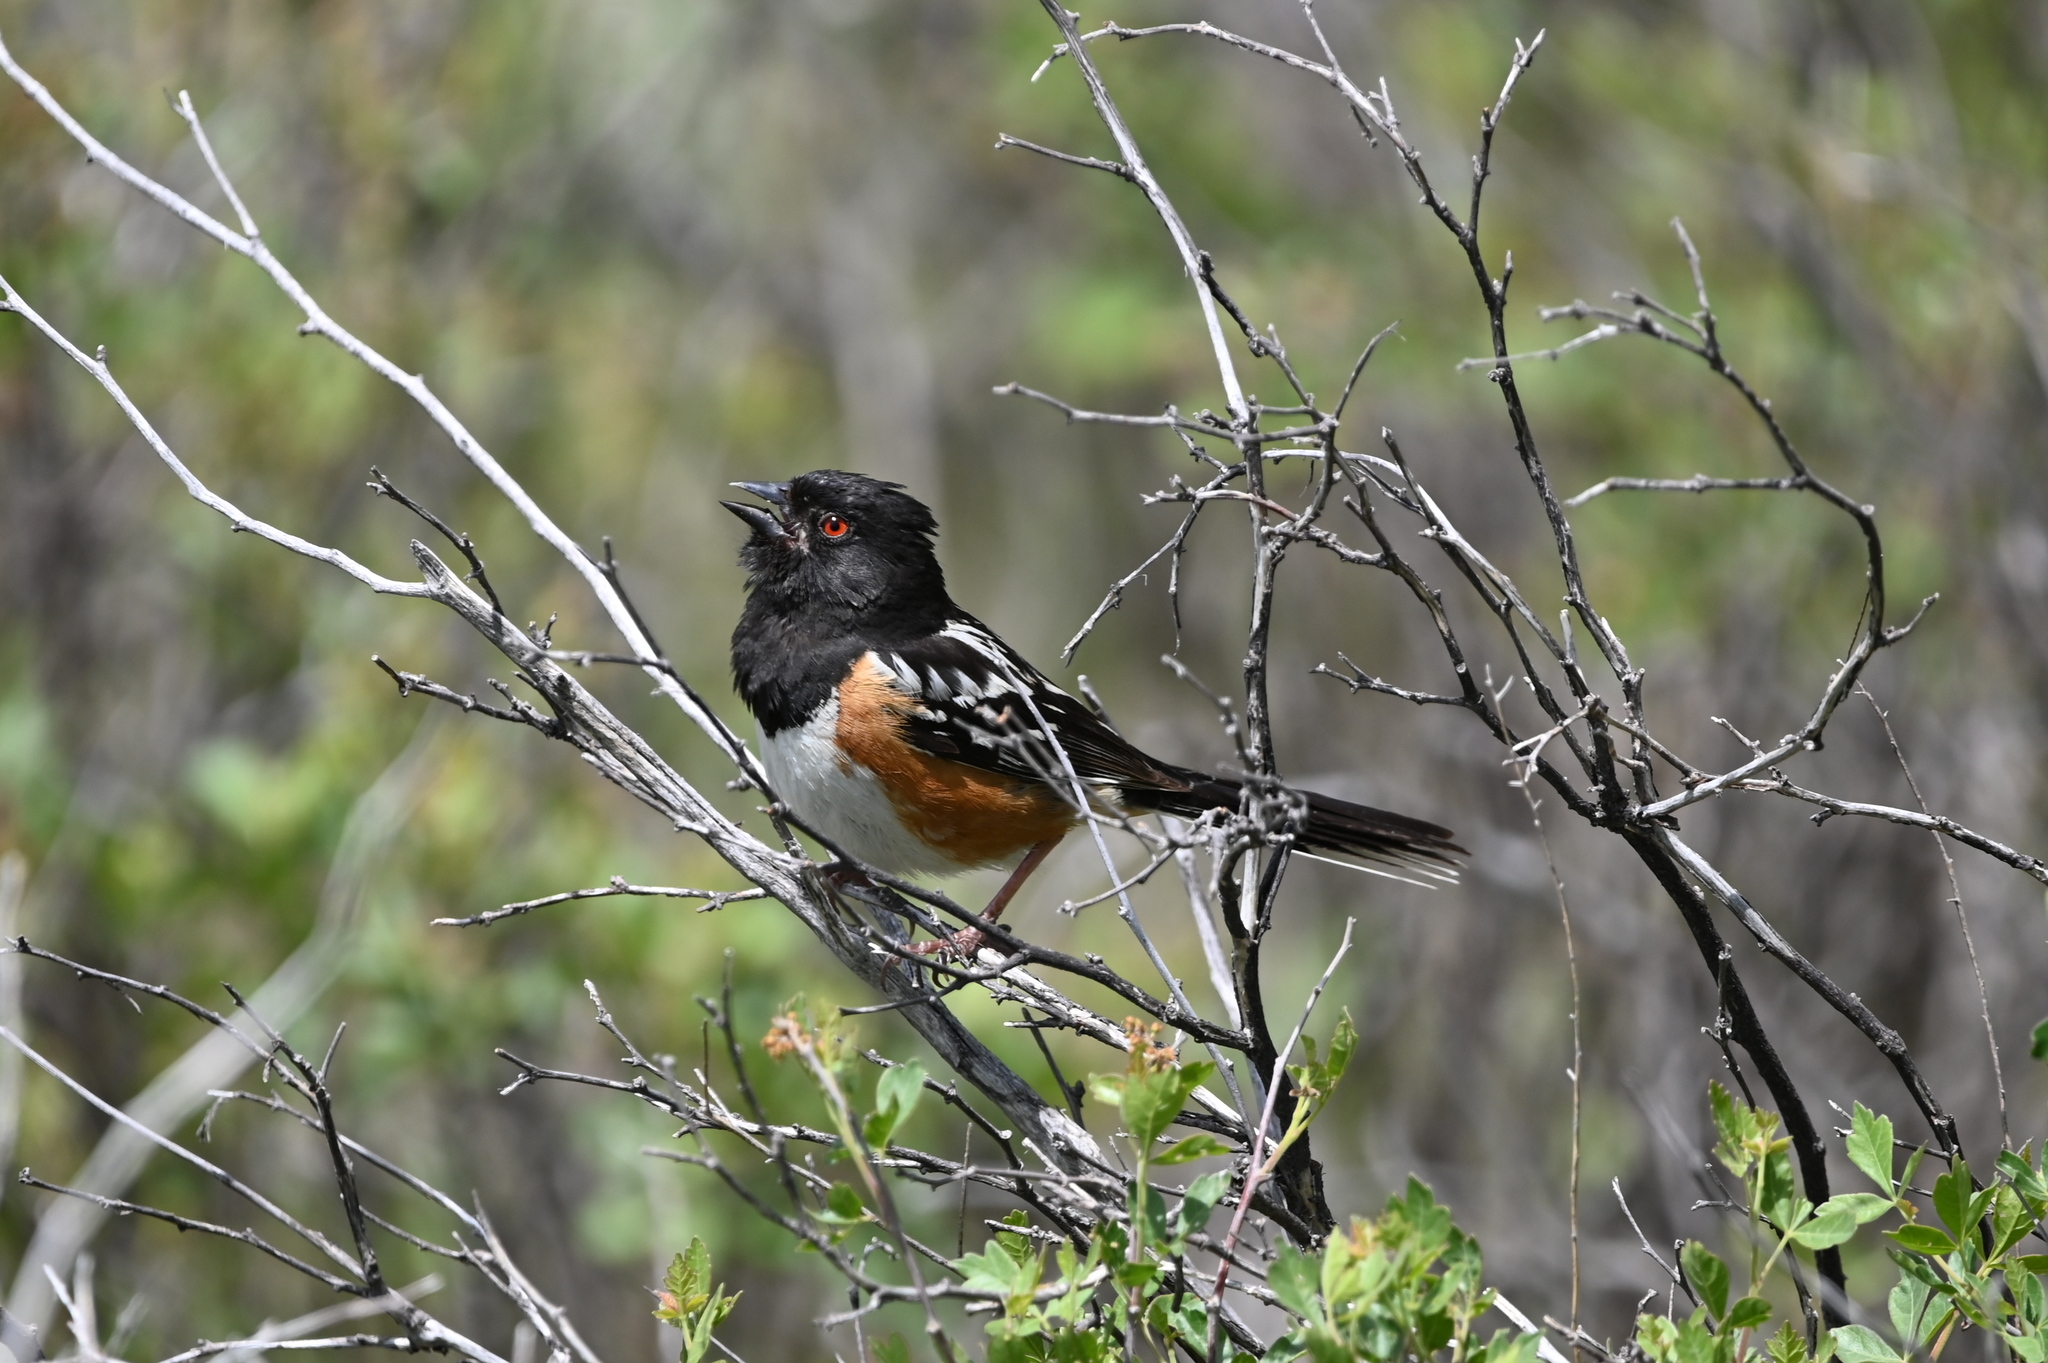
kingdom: Animalia
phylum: Chordata
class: Aves
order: Passeriformes
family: Passerellidae
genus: Pipilo
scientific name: Pipilo maculatus
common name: Spotted towhee
